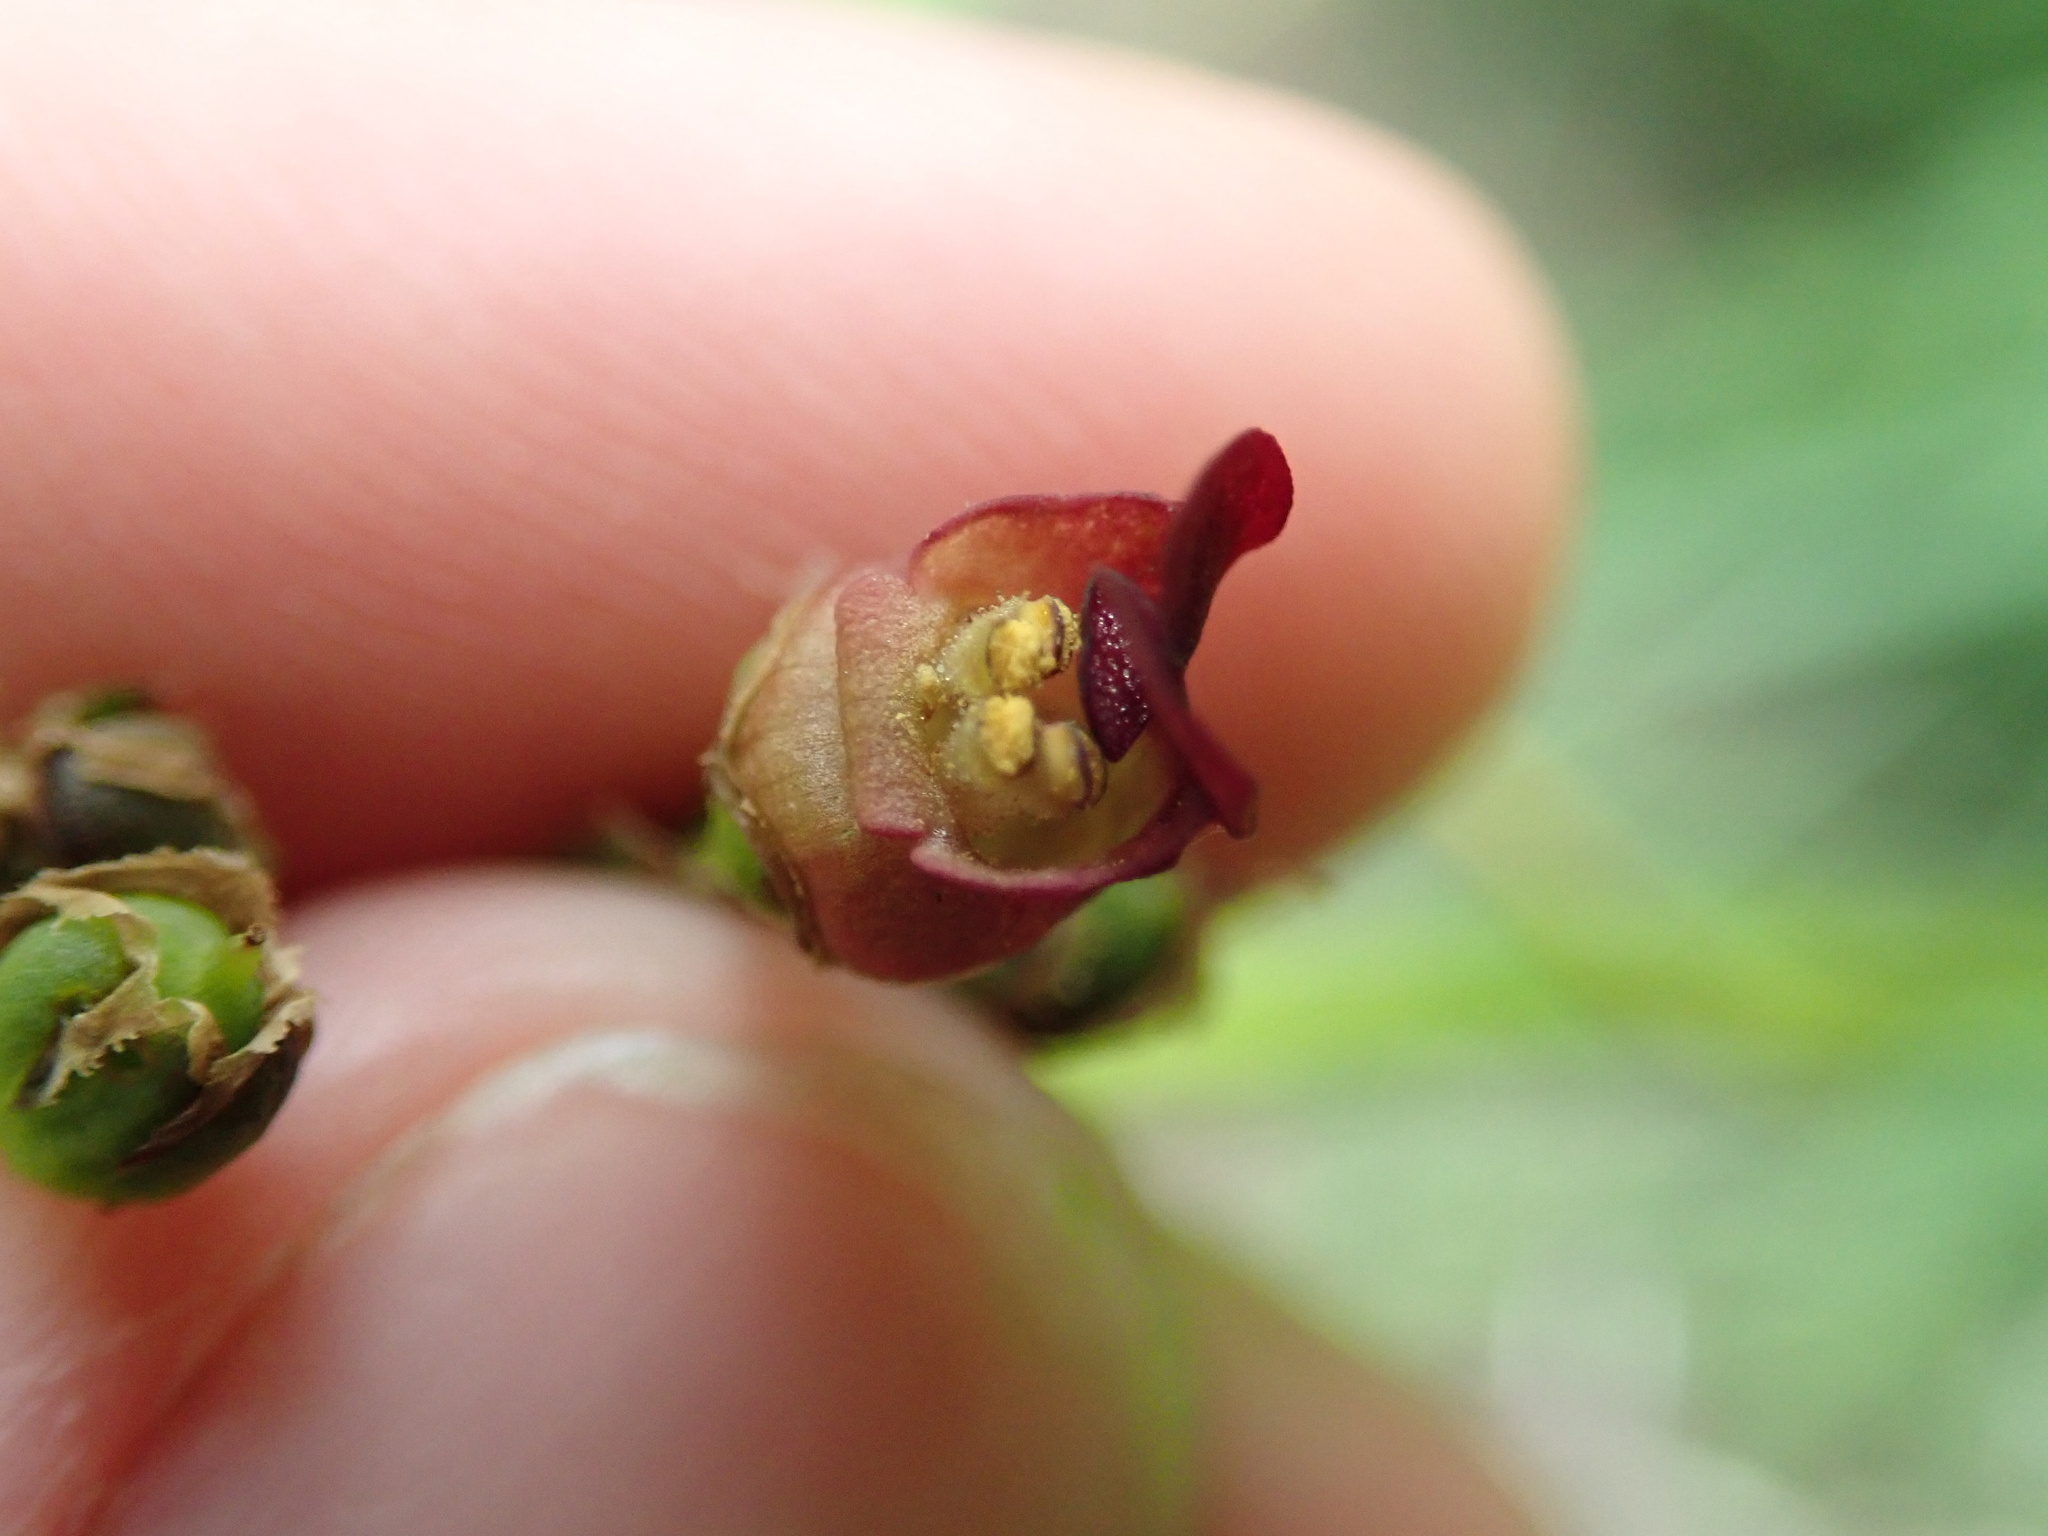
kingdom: Plantae
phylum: Tracheophyta
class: Magnoliopsida
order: Lamiales
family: Scrophulariaceae
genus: Scrophularia
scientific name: Scrophularia auriculata
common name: Water betony
